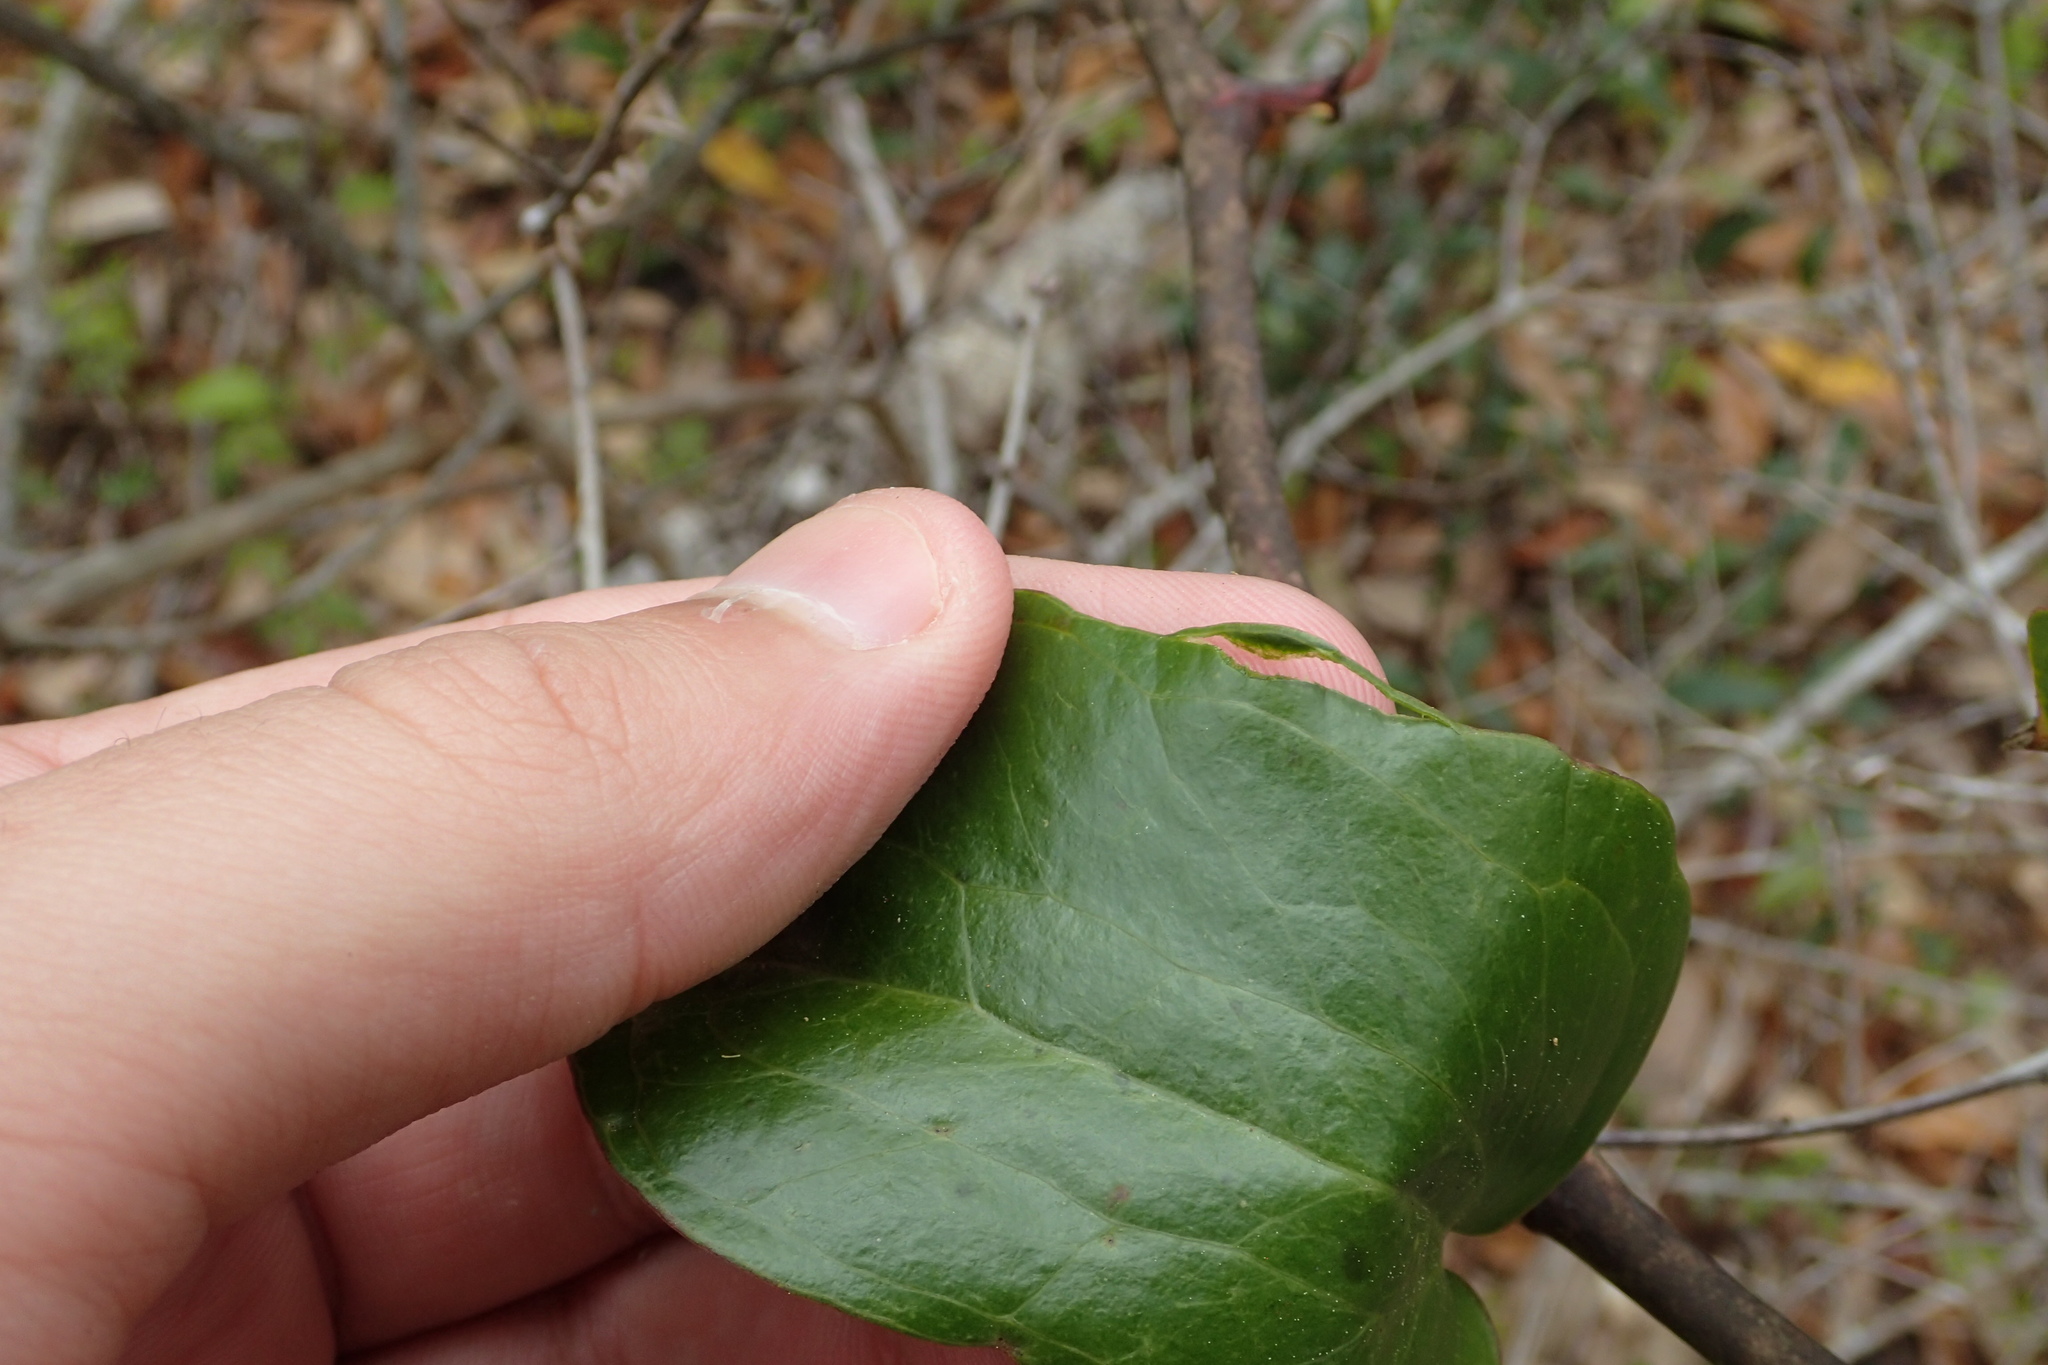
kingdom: Plantae
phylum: Tracheophyta
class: Liliopsida
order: Liliales
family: Smilacaceae
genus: Smilax
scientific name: Smilax auriculata
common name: Wild bamboo
